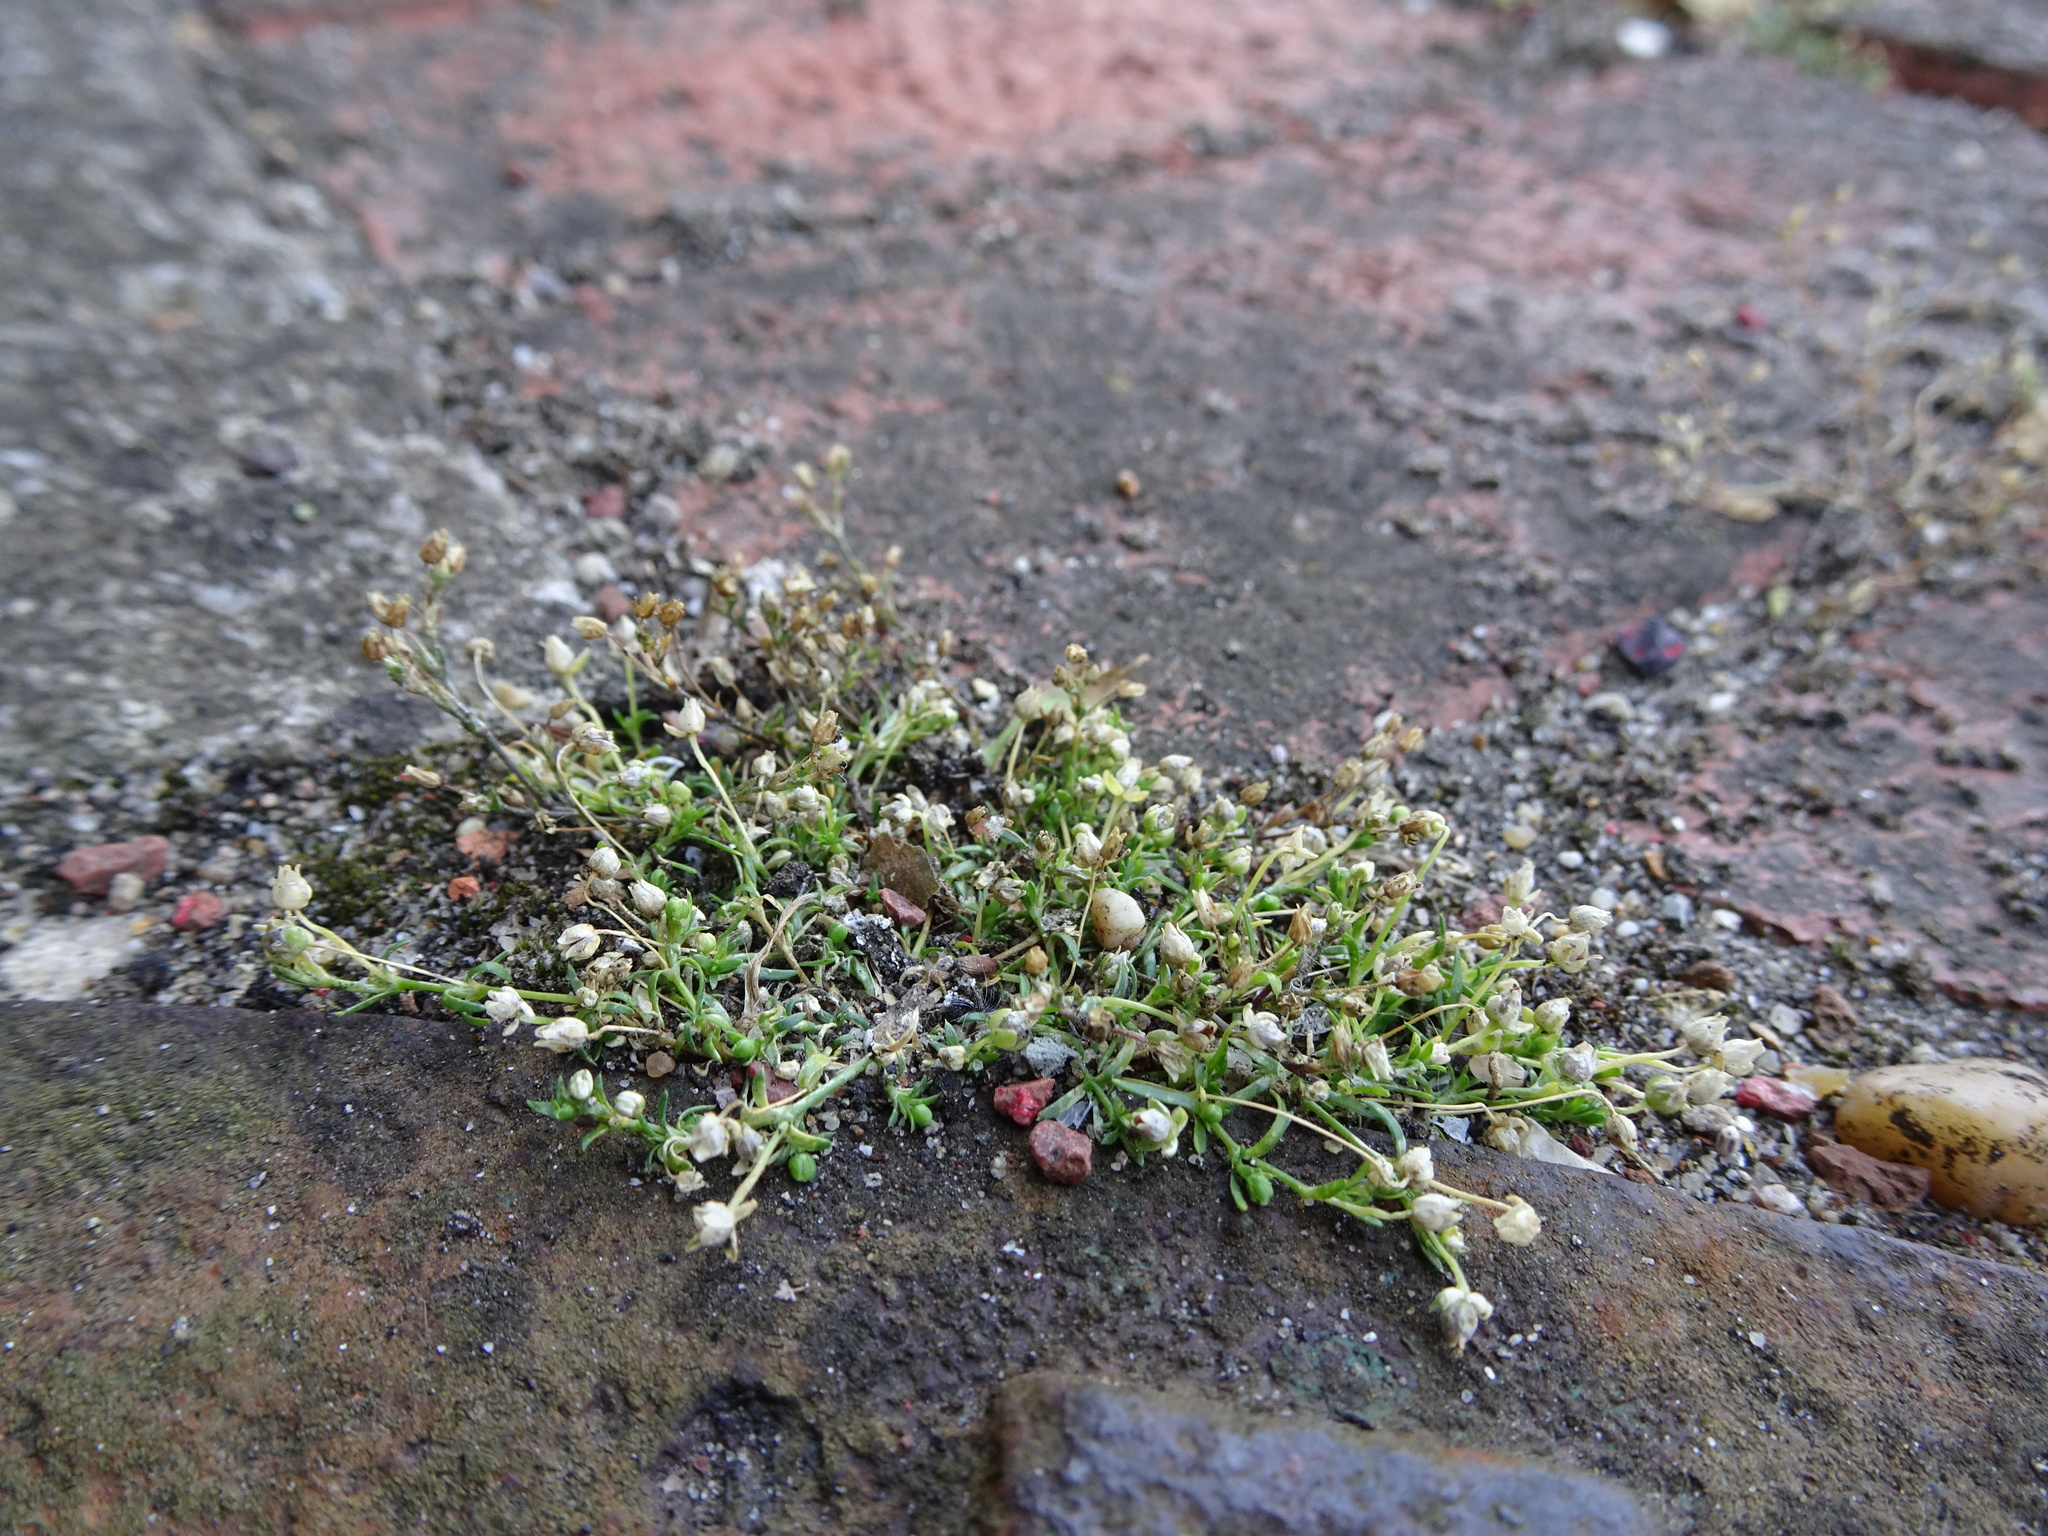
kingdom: Plantae
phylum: Tracheophyta
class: Magnoliopsida
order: Caryophyllales
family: Caryophyllaceae
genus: Sagina
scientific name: Sagina procumbens
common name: Procumbent pearlwort
